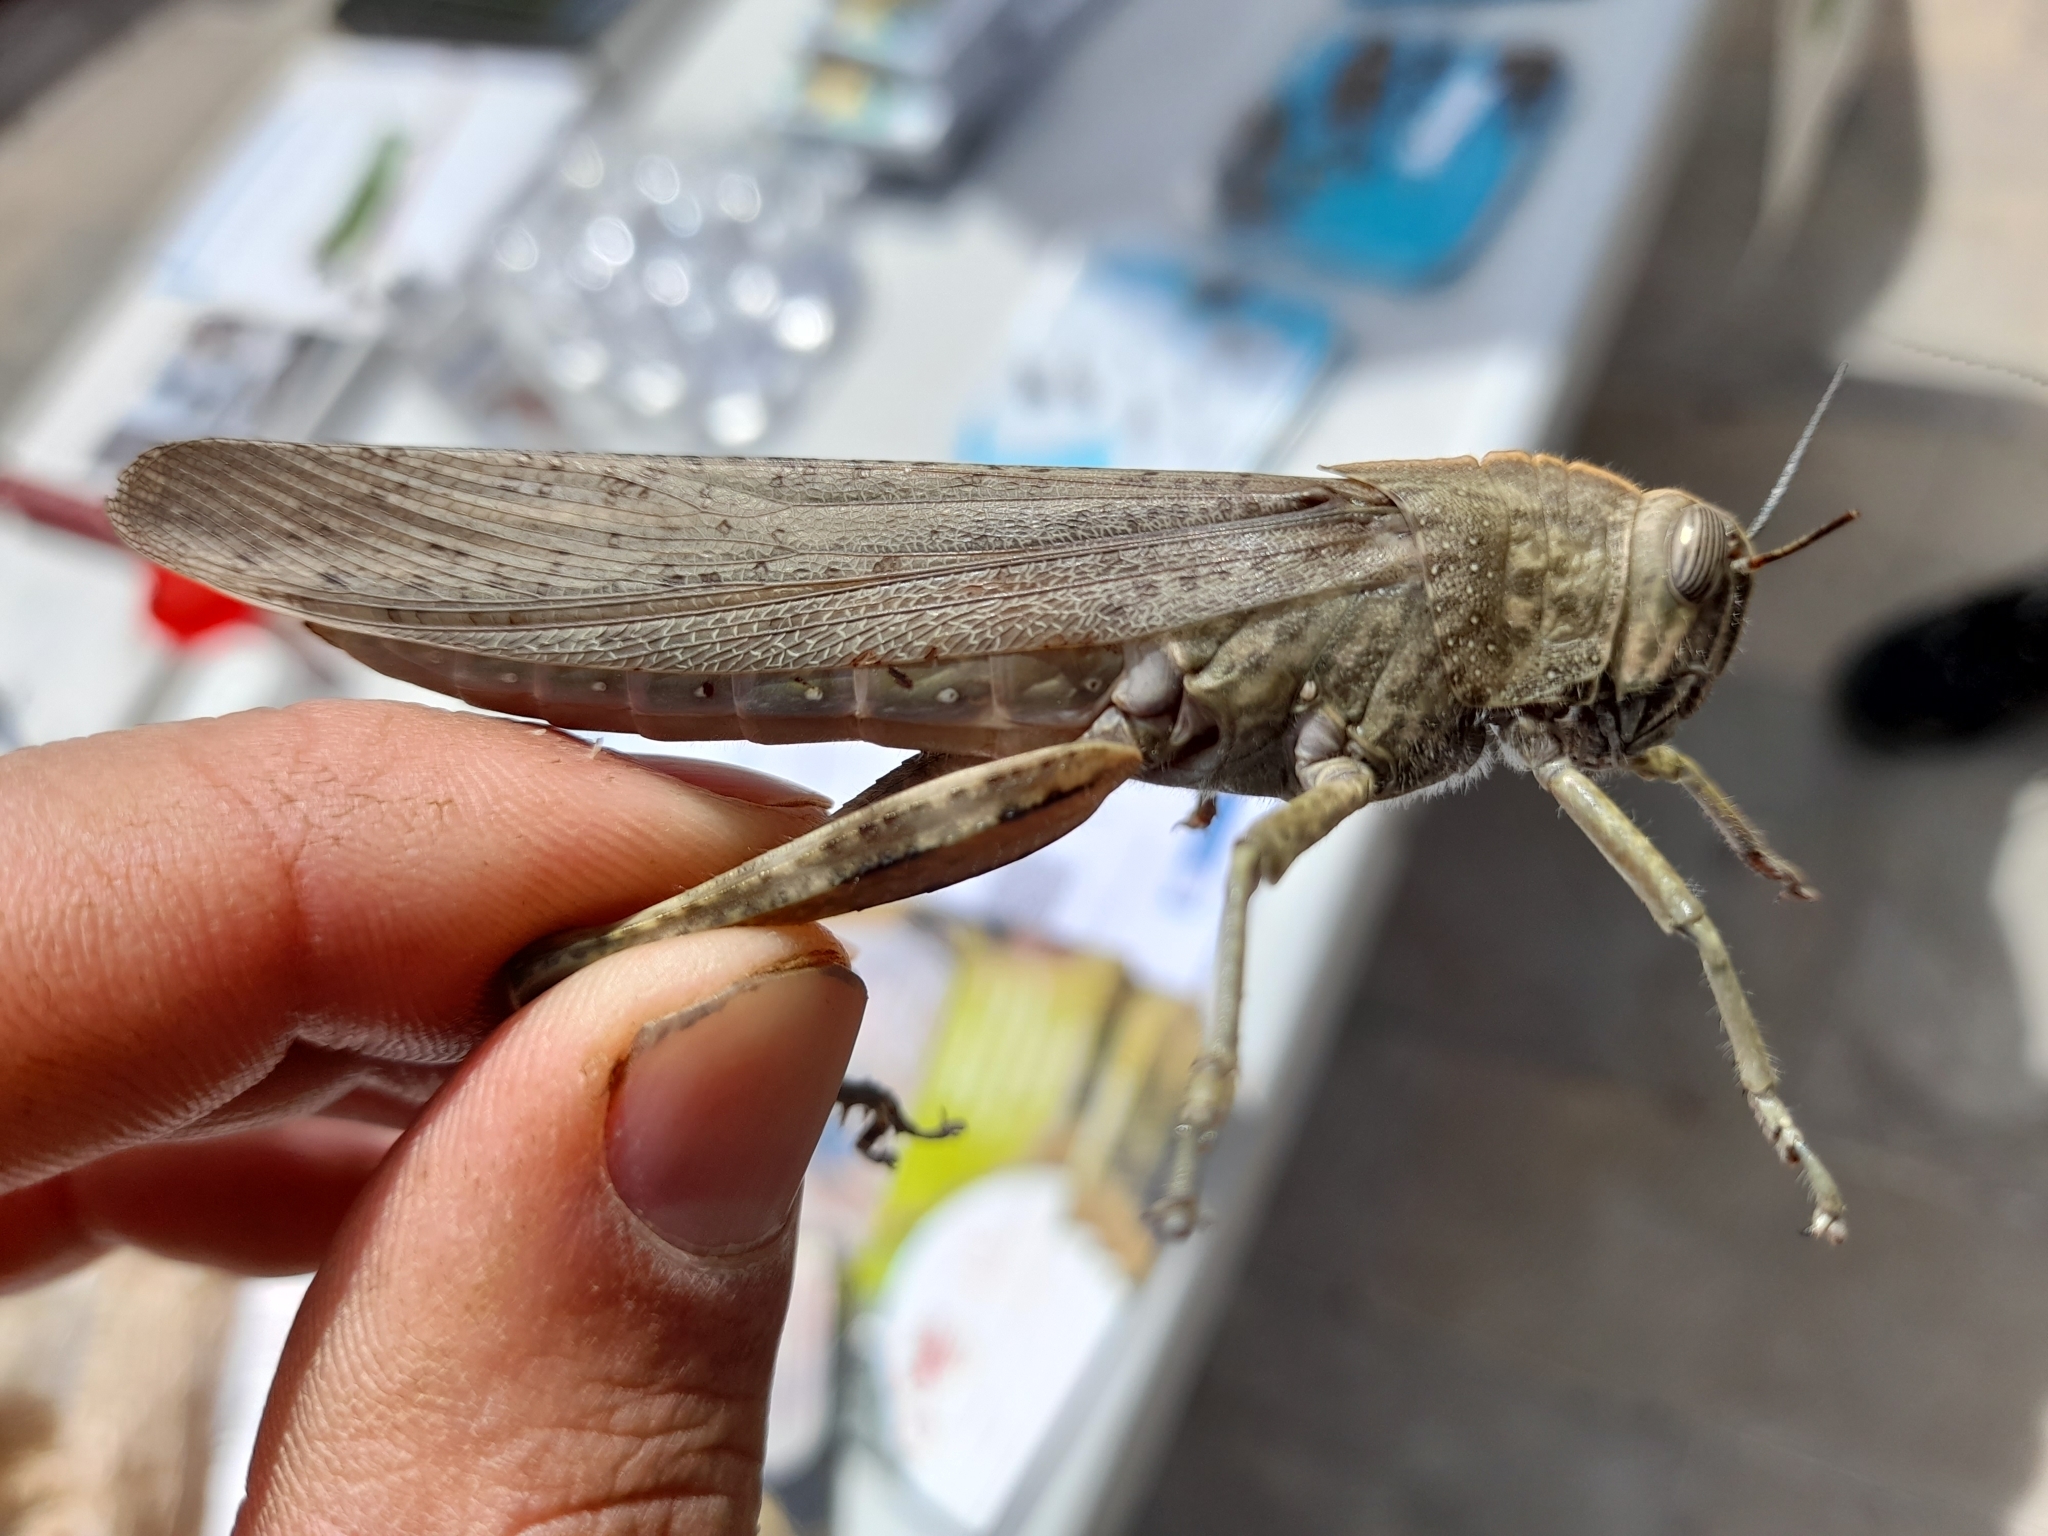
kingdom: Animalia
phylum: Arthropoda
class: Insecta
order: Orthoptera
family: Acrididae
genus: Anacridium
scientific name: Anacridium aegyptium
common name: Egyptian grasshopper
